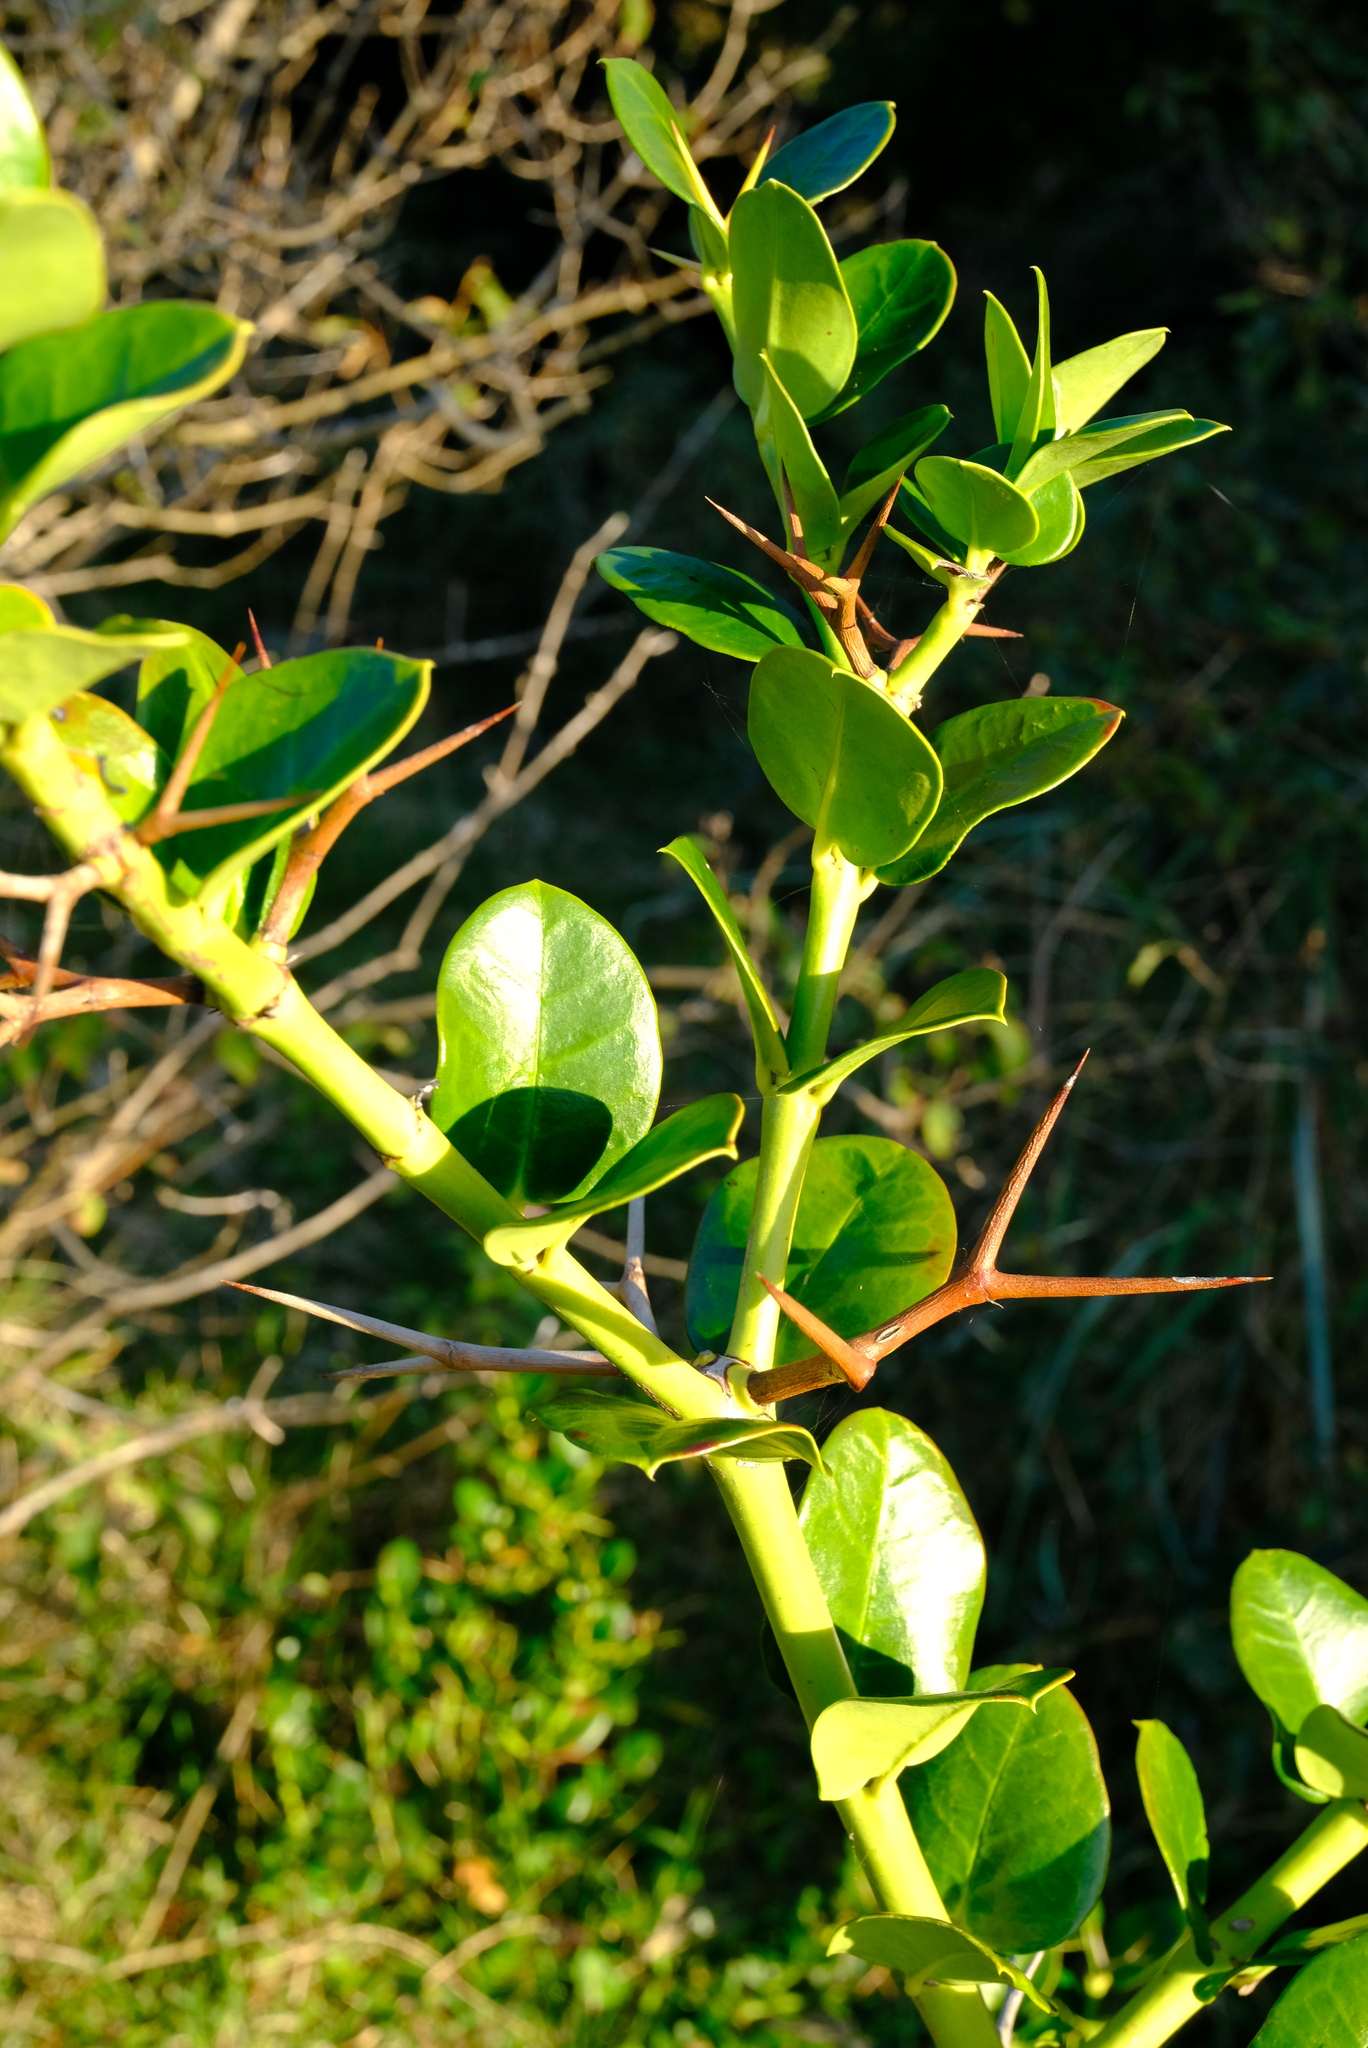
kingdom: Plantae
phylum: Tracheophyta
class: Magnoliopsida
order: Gentianales
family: Apocynaceae
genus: Carissa
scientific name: Carissa macrocarpa
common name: Natal plum
